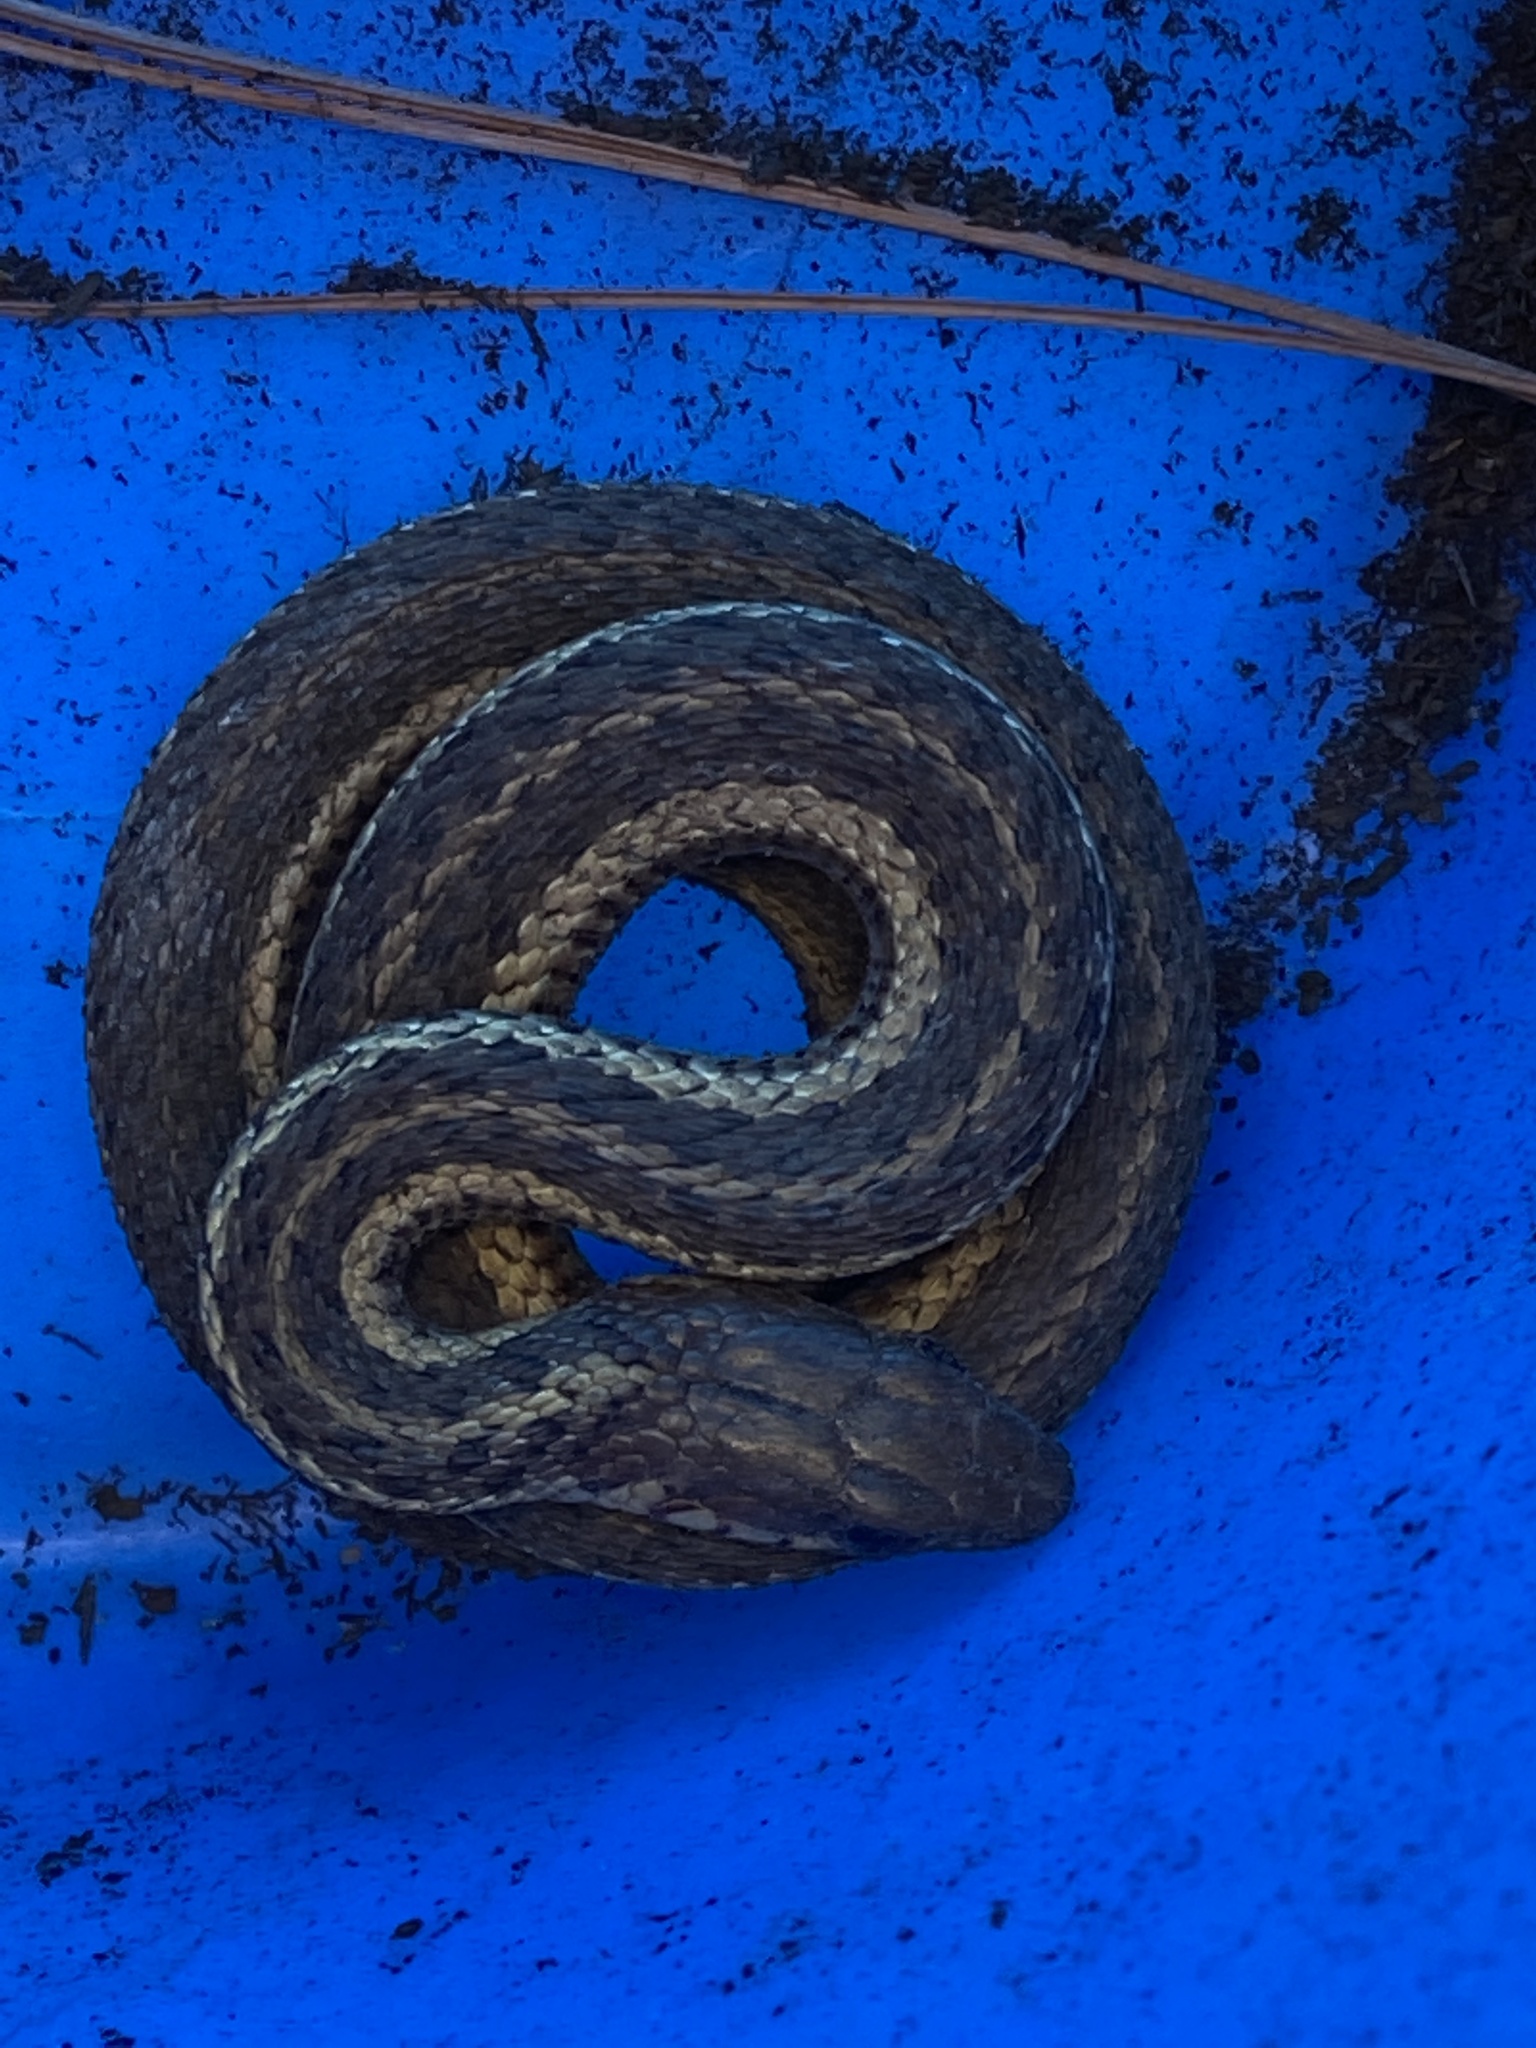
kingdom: Animalia
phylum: Chordata
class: Squamata
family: Colubridae
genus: Thamnophis
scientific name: Thamnophis sirtalis
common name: Common garter snake
